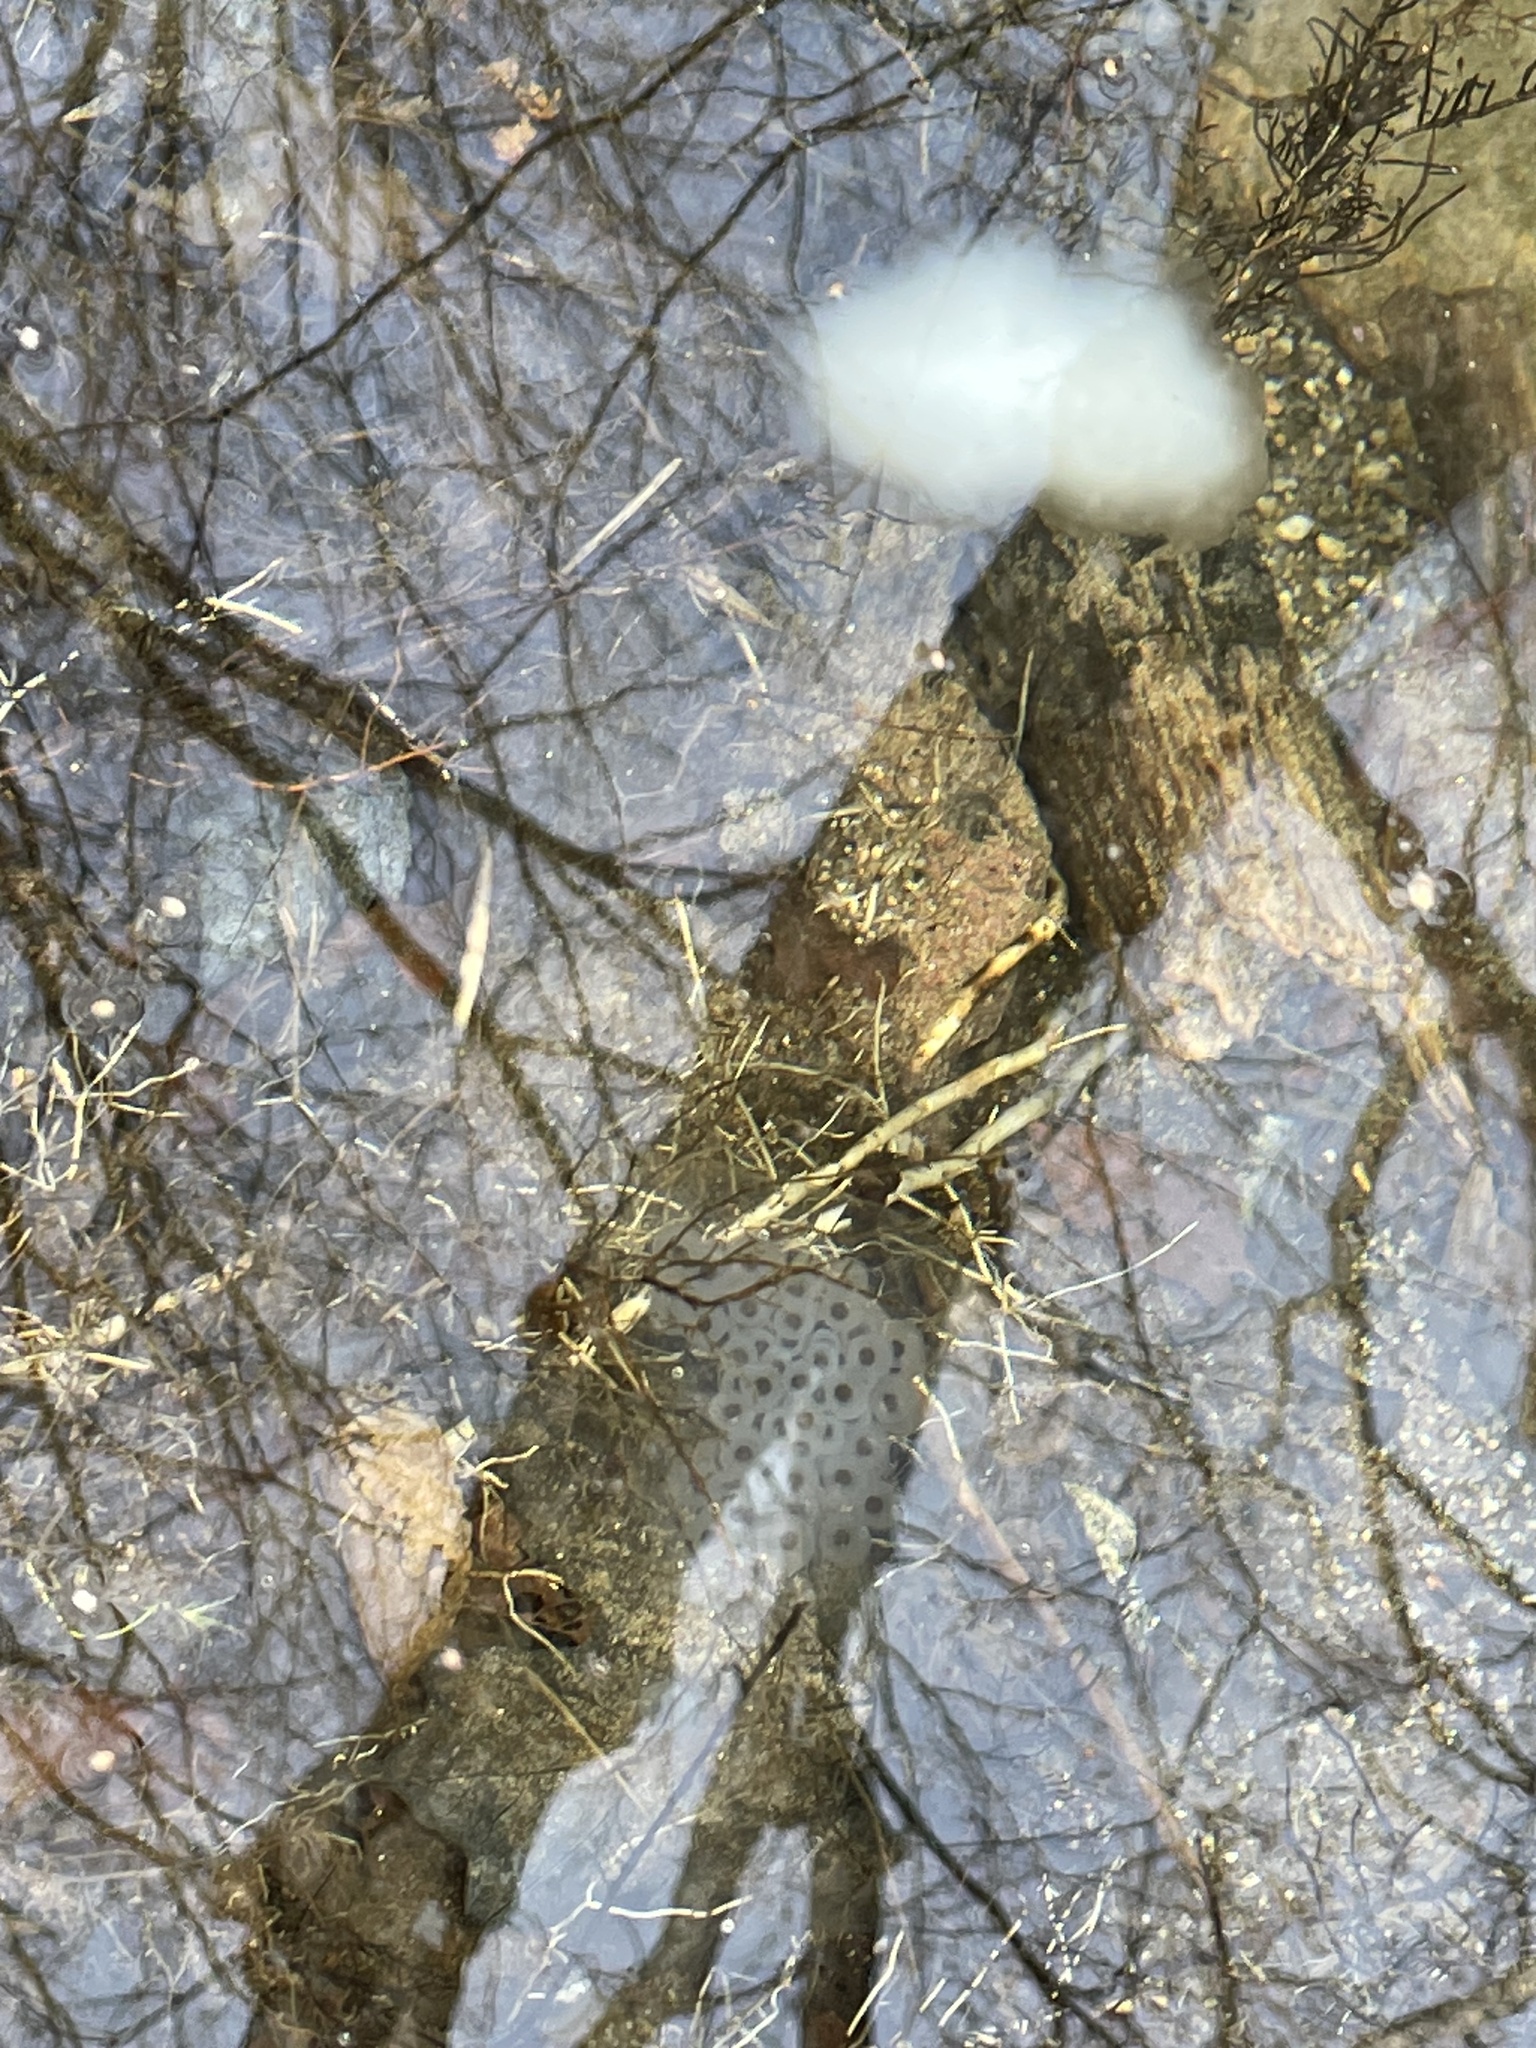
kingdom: Animalia
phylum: Chordata
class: Amphibia
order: Caudata
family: Ambystomatidae
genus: Ambystoma
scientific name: Ambystoma maculatum
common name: Spotted salamander
